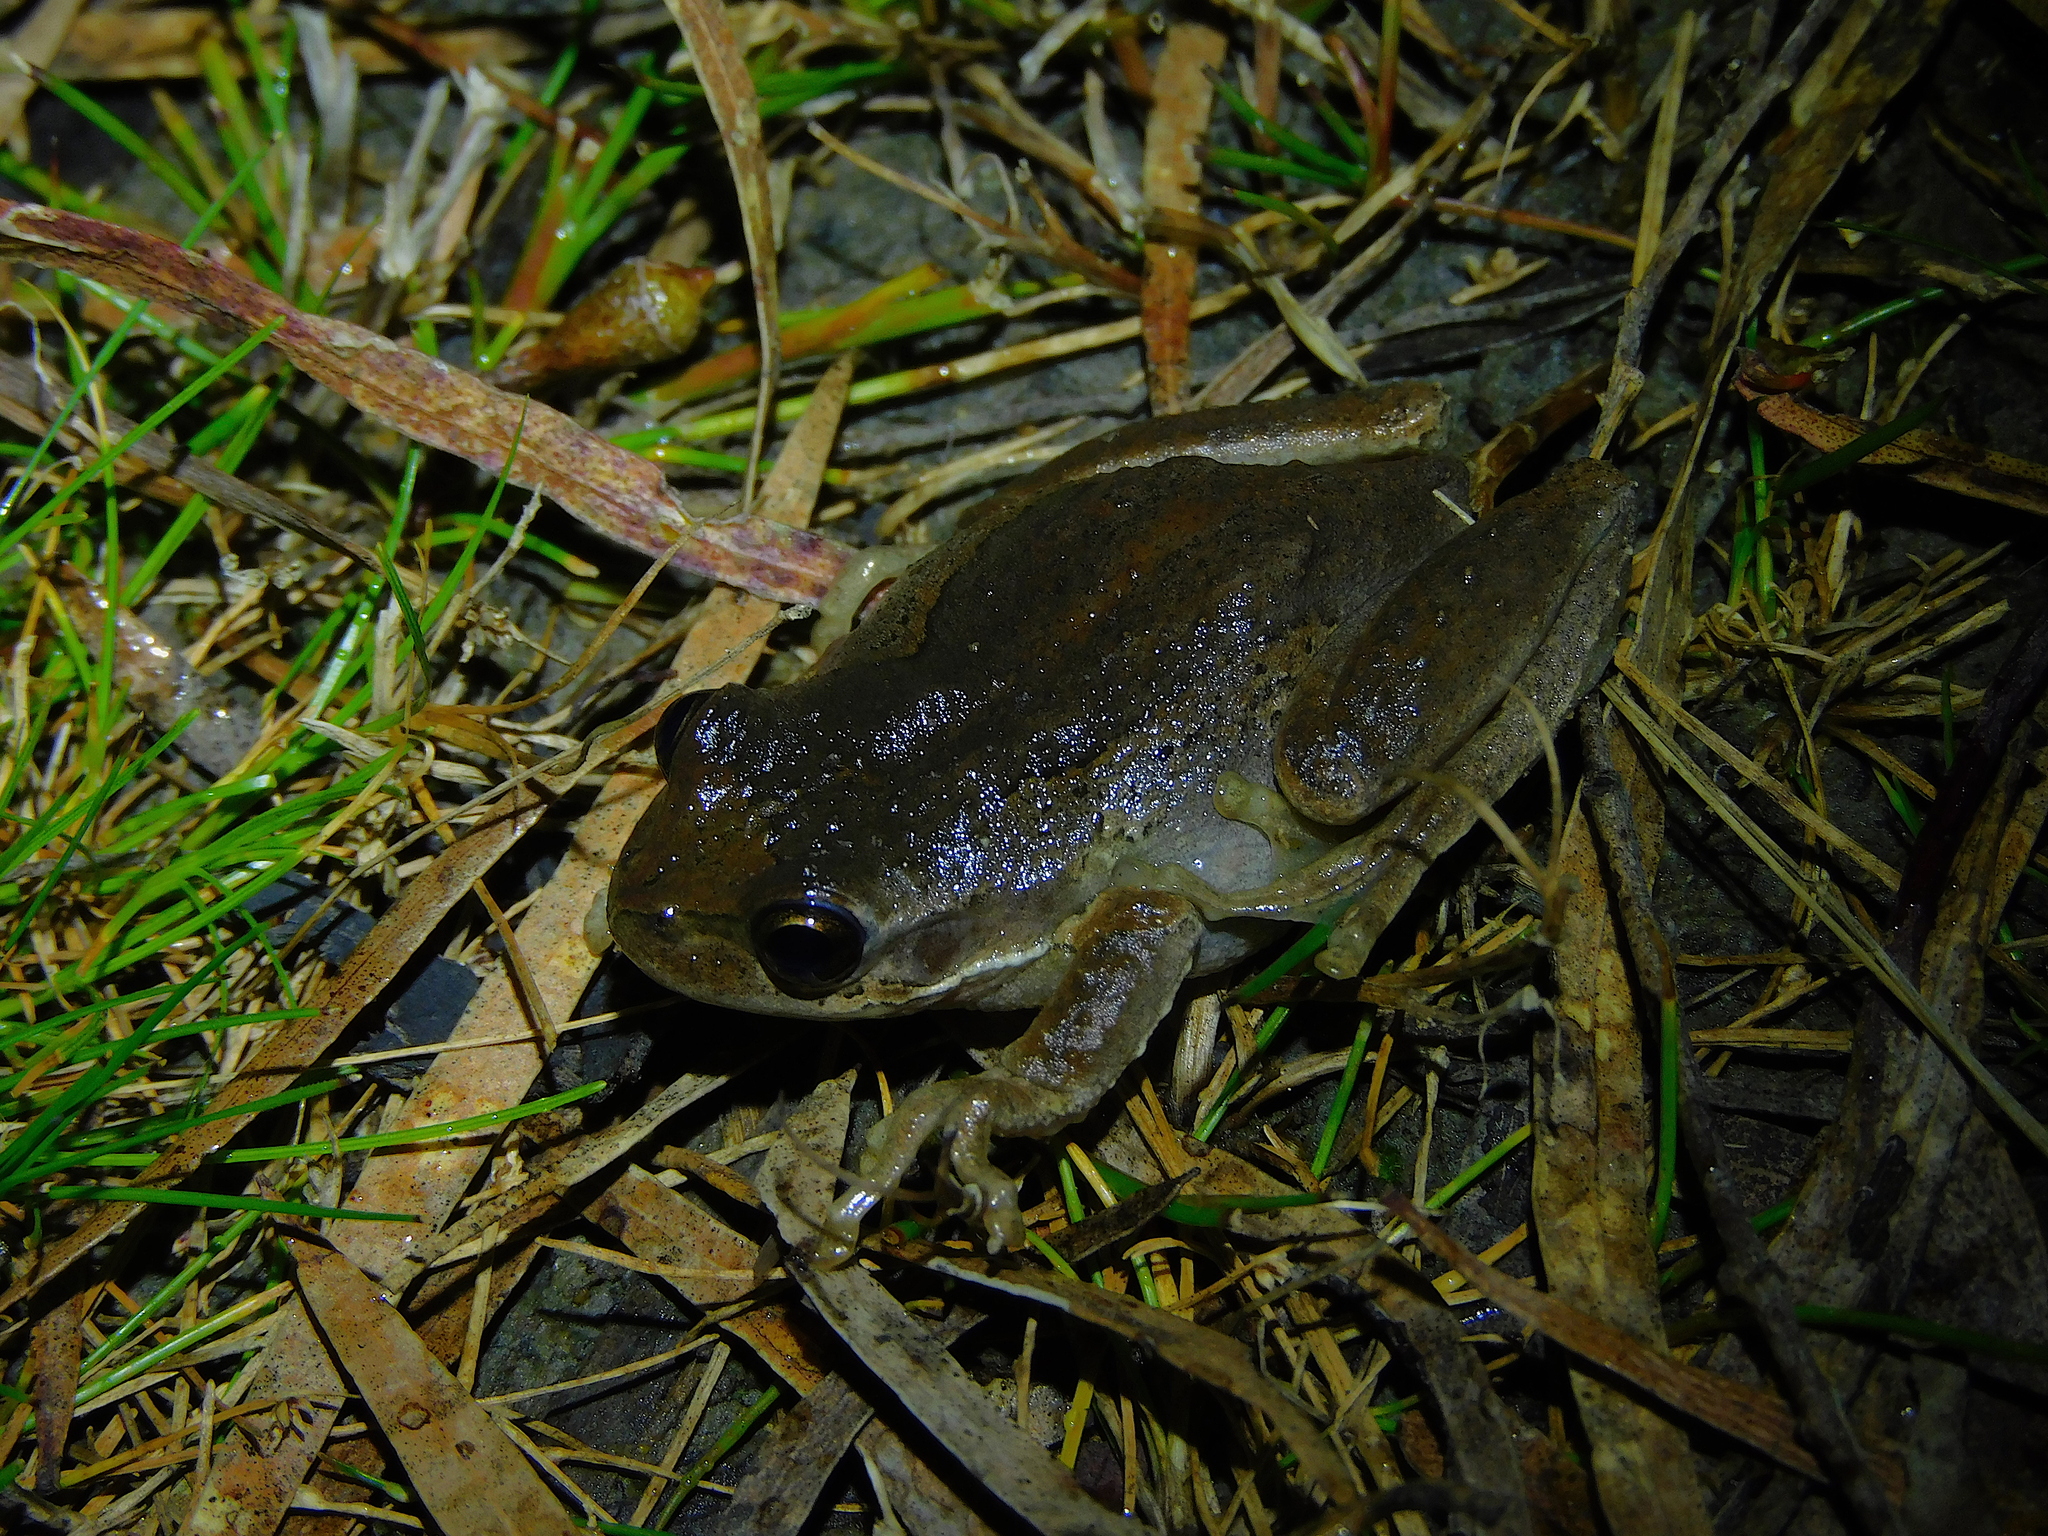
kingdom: Animalia
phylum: Chordata
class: Amphibia
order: Anura
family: Pelodryadidae
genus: Litoria
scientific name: Litoria ewingii
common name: Southern brown tree frog
